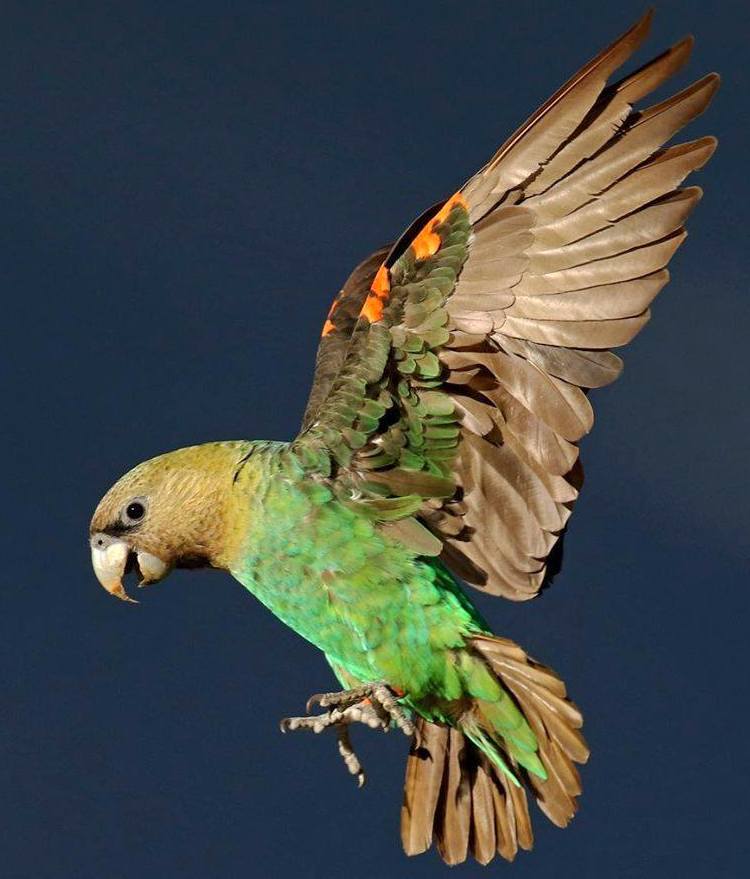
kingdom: Animalia
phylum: Chordata
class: Aves
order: Psittaciformes
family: Psittacidae
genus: Poicephalus
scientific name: Poicephalus robustus
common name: Cape parrot
